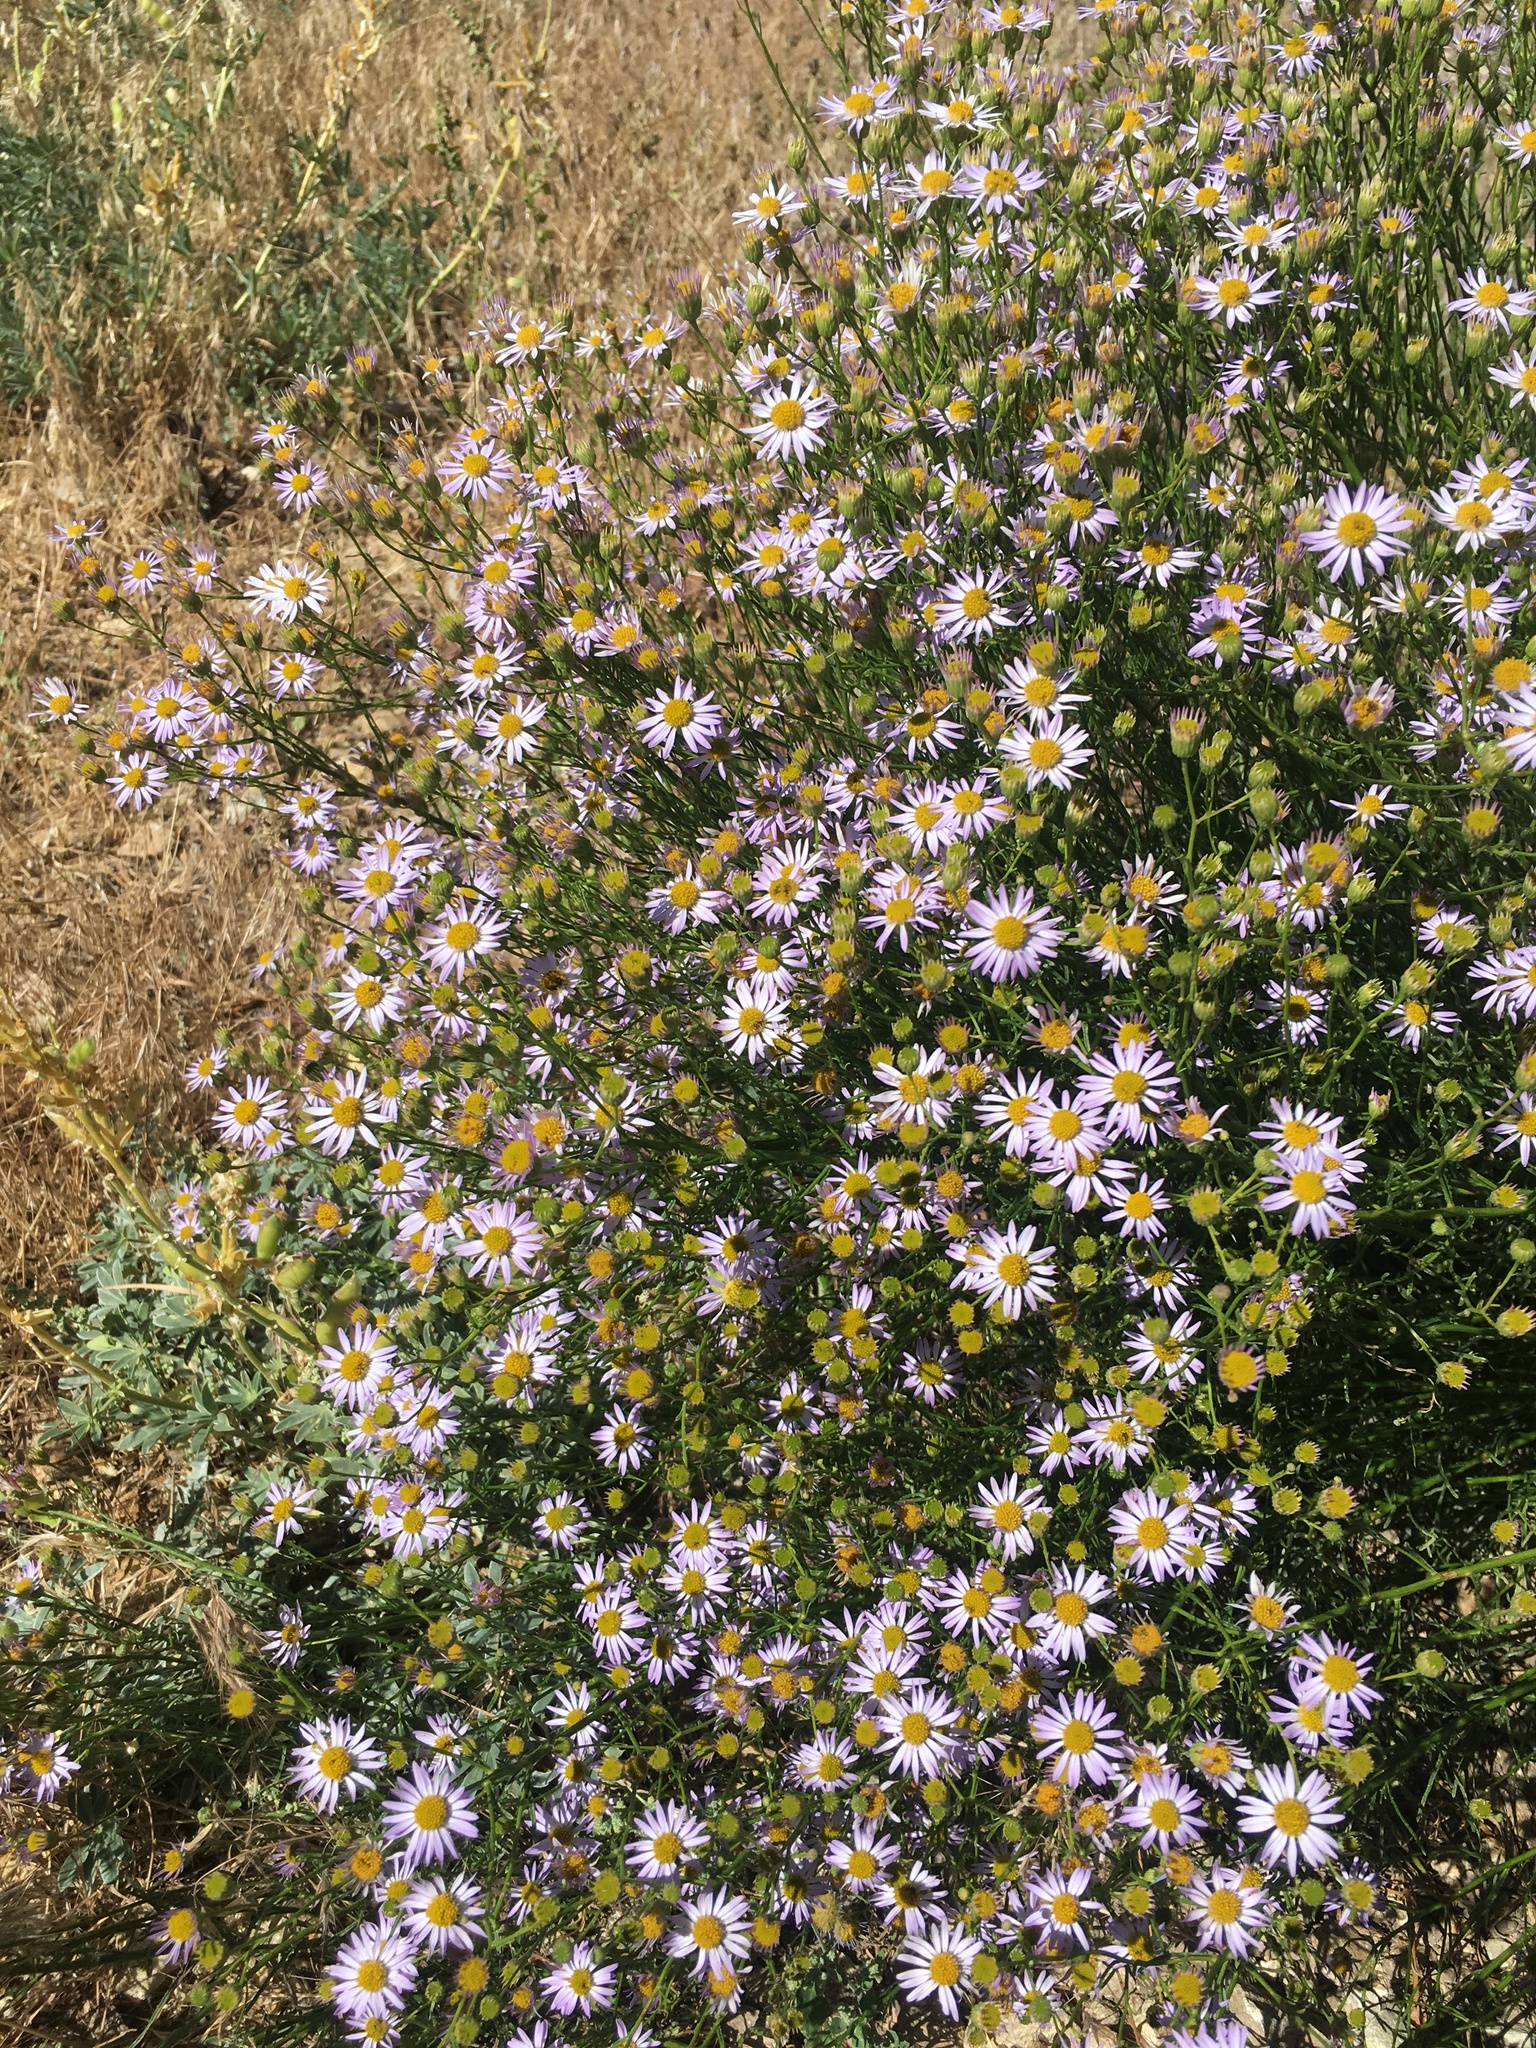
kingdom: Plantae
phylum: Tracheophyta
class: Magnoliopsida
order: Asterales
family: Asteraceae
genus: Erigeron
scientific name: Erigeron foliosus
